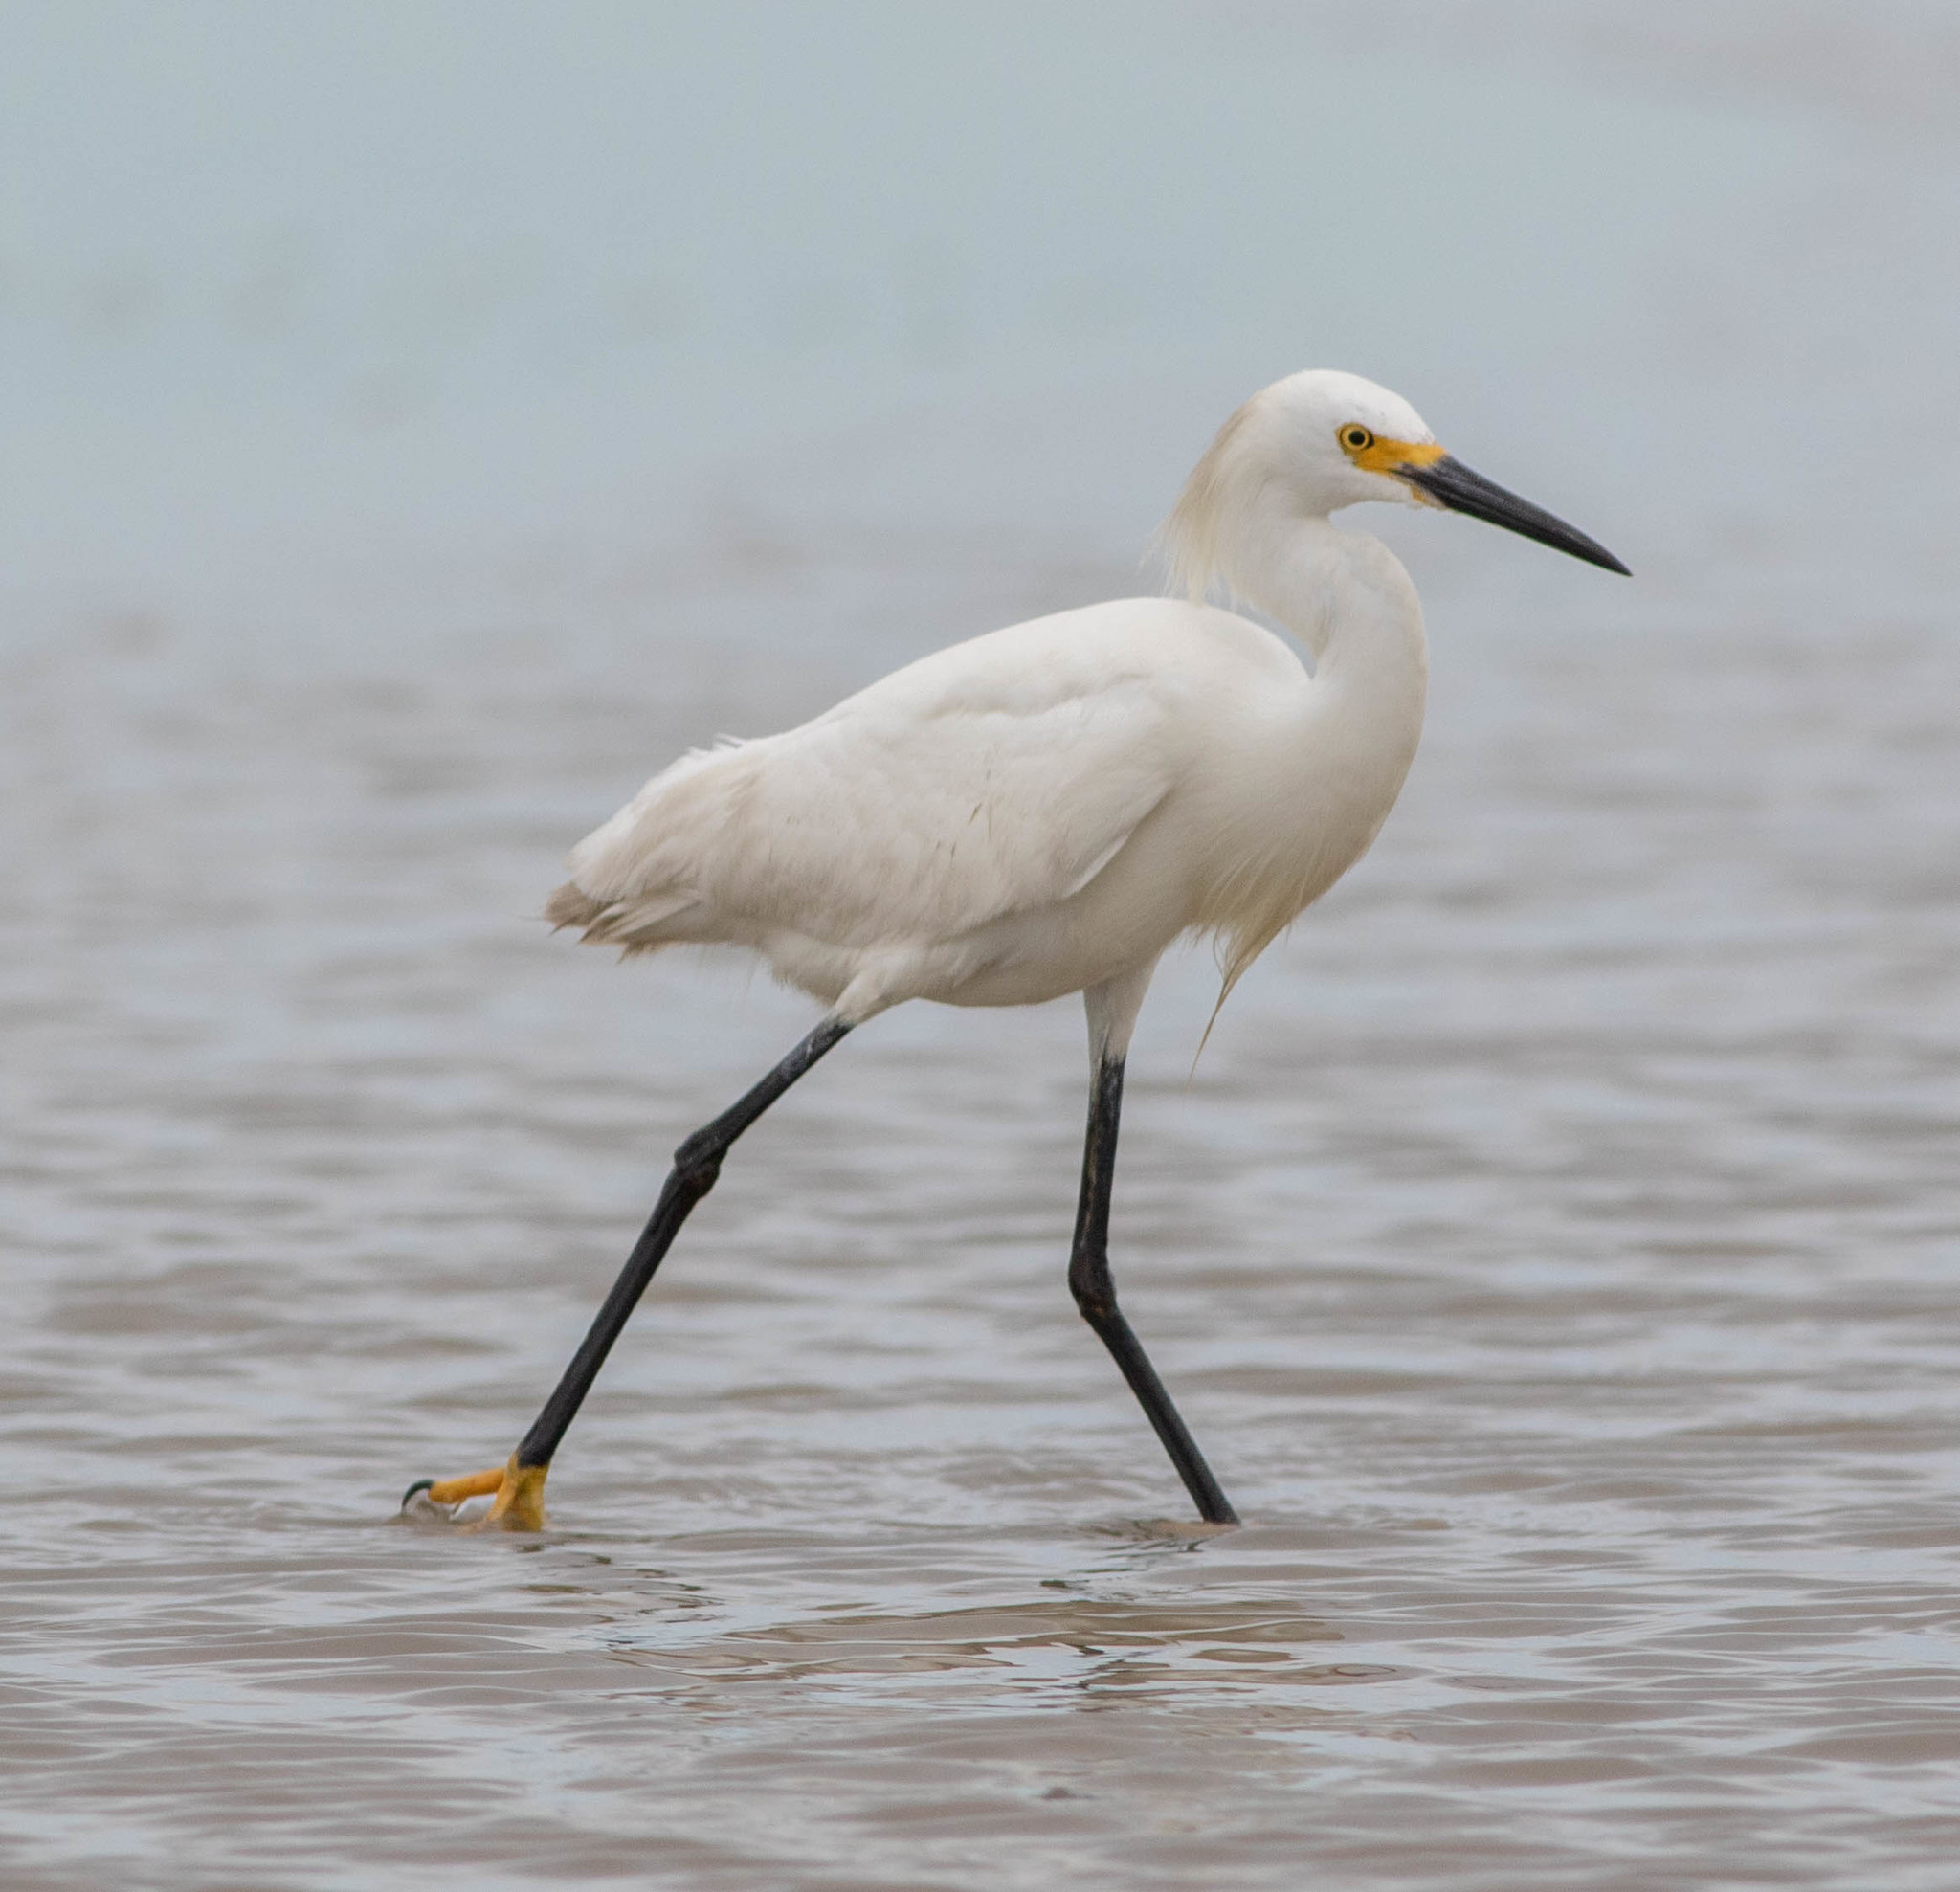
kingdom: Animalia
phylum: Chordata
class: Aves
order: Pelecaniformes
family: Ardeidae
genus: Egretta
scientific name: Egretta thula
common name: Snowy egret
